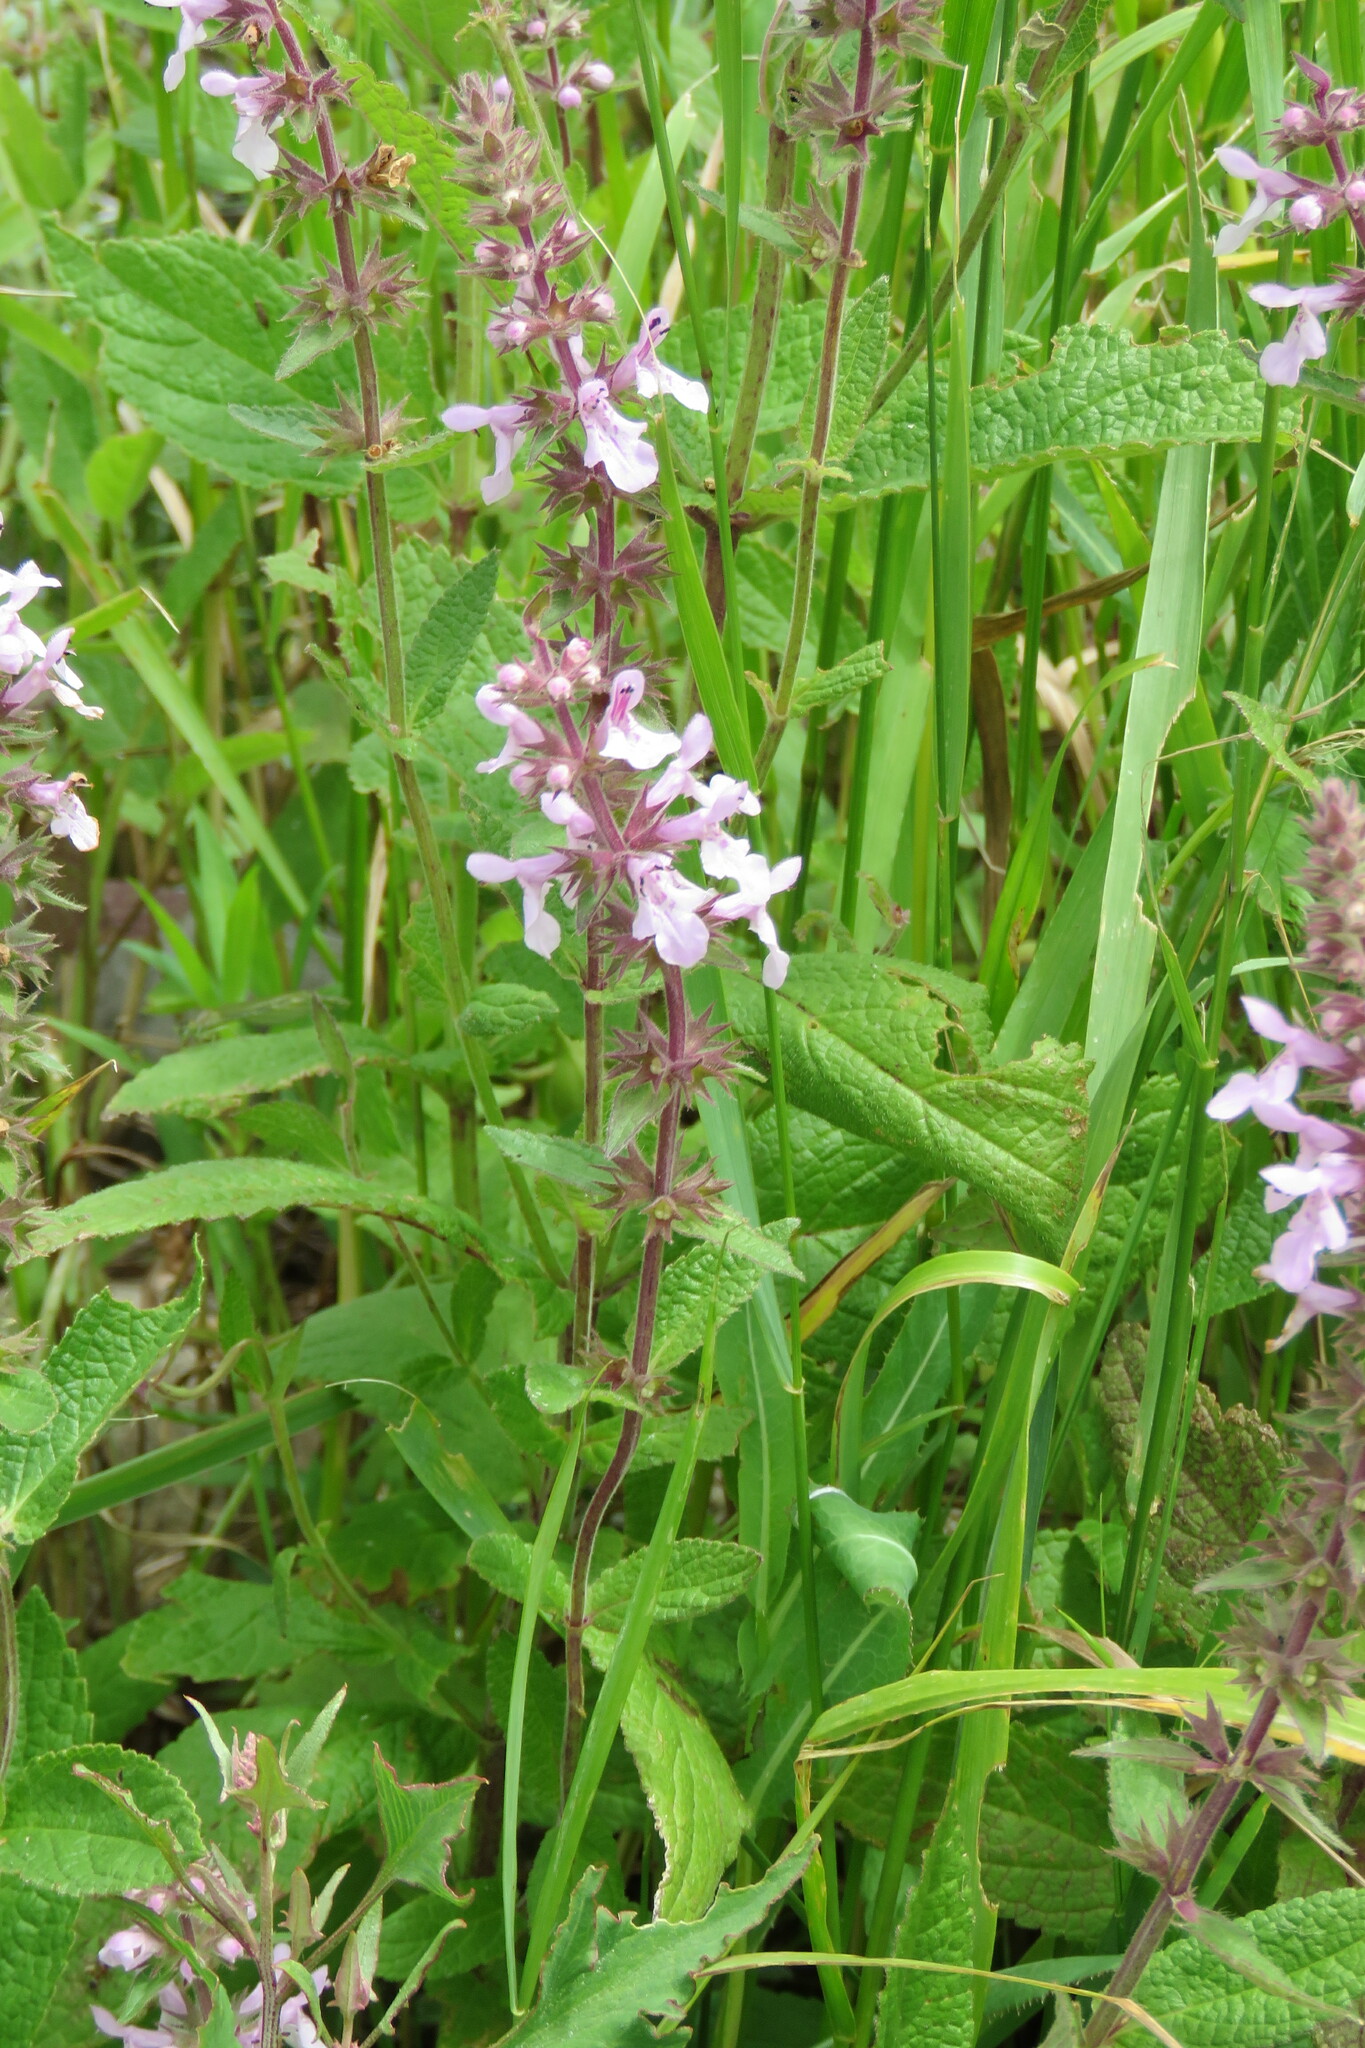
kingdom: Plantae
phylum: Tracheophyta
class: Magnoliopsida
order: Lamiales
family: Lamiaceae
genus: Stachys
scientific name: Stachys pilosa
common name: Hairy hedge-nettle
